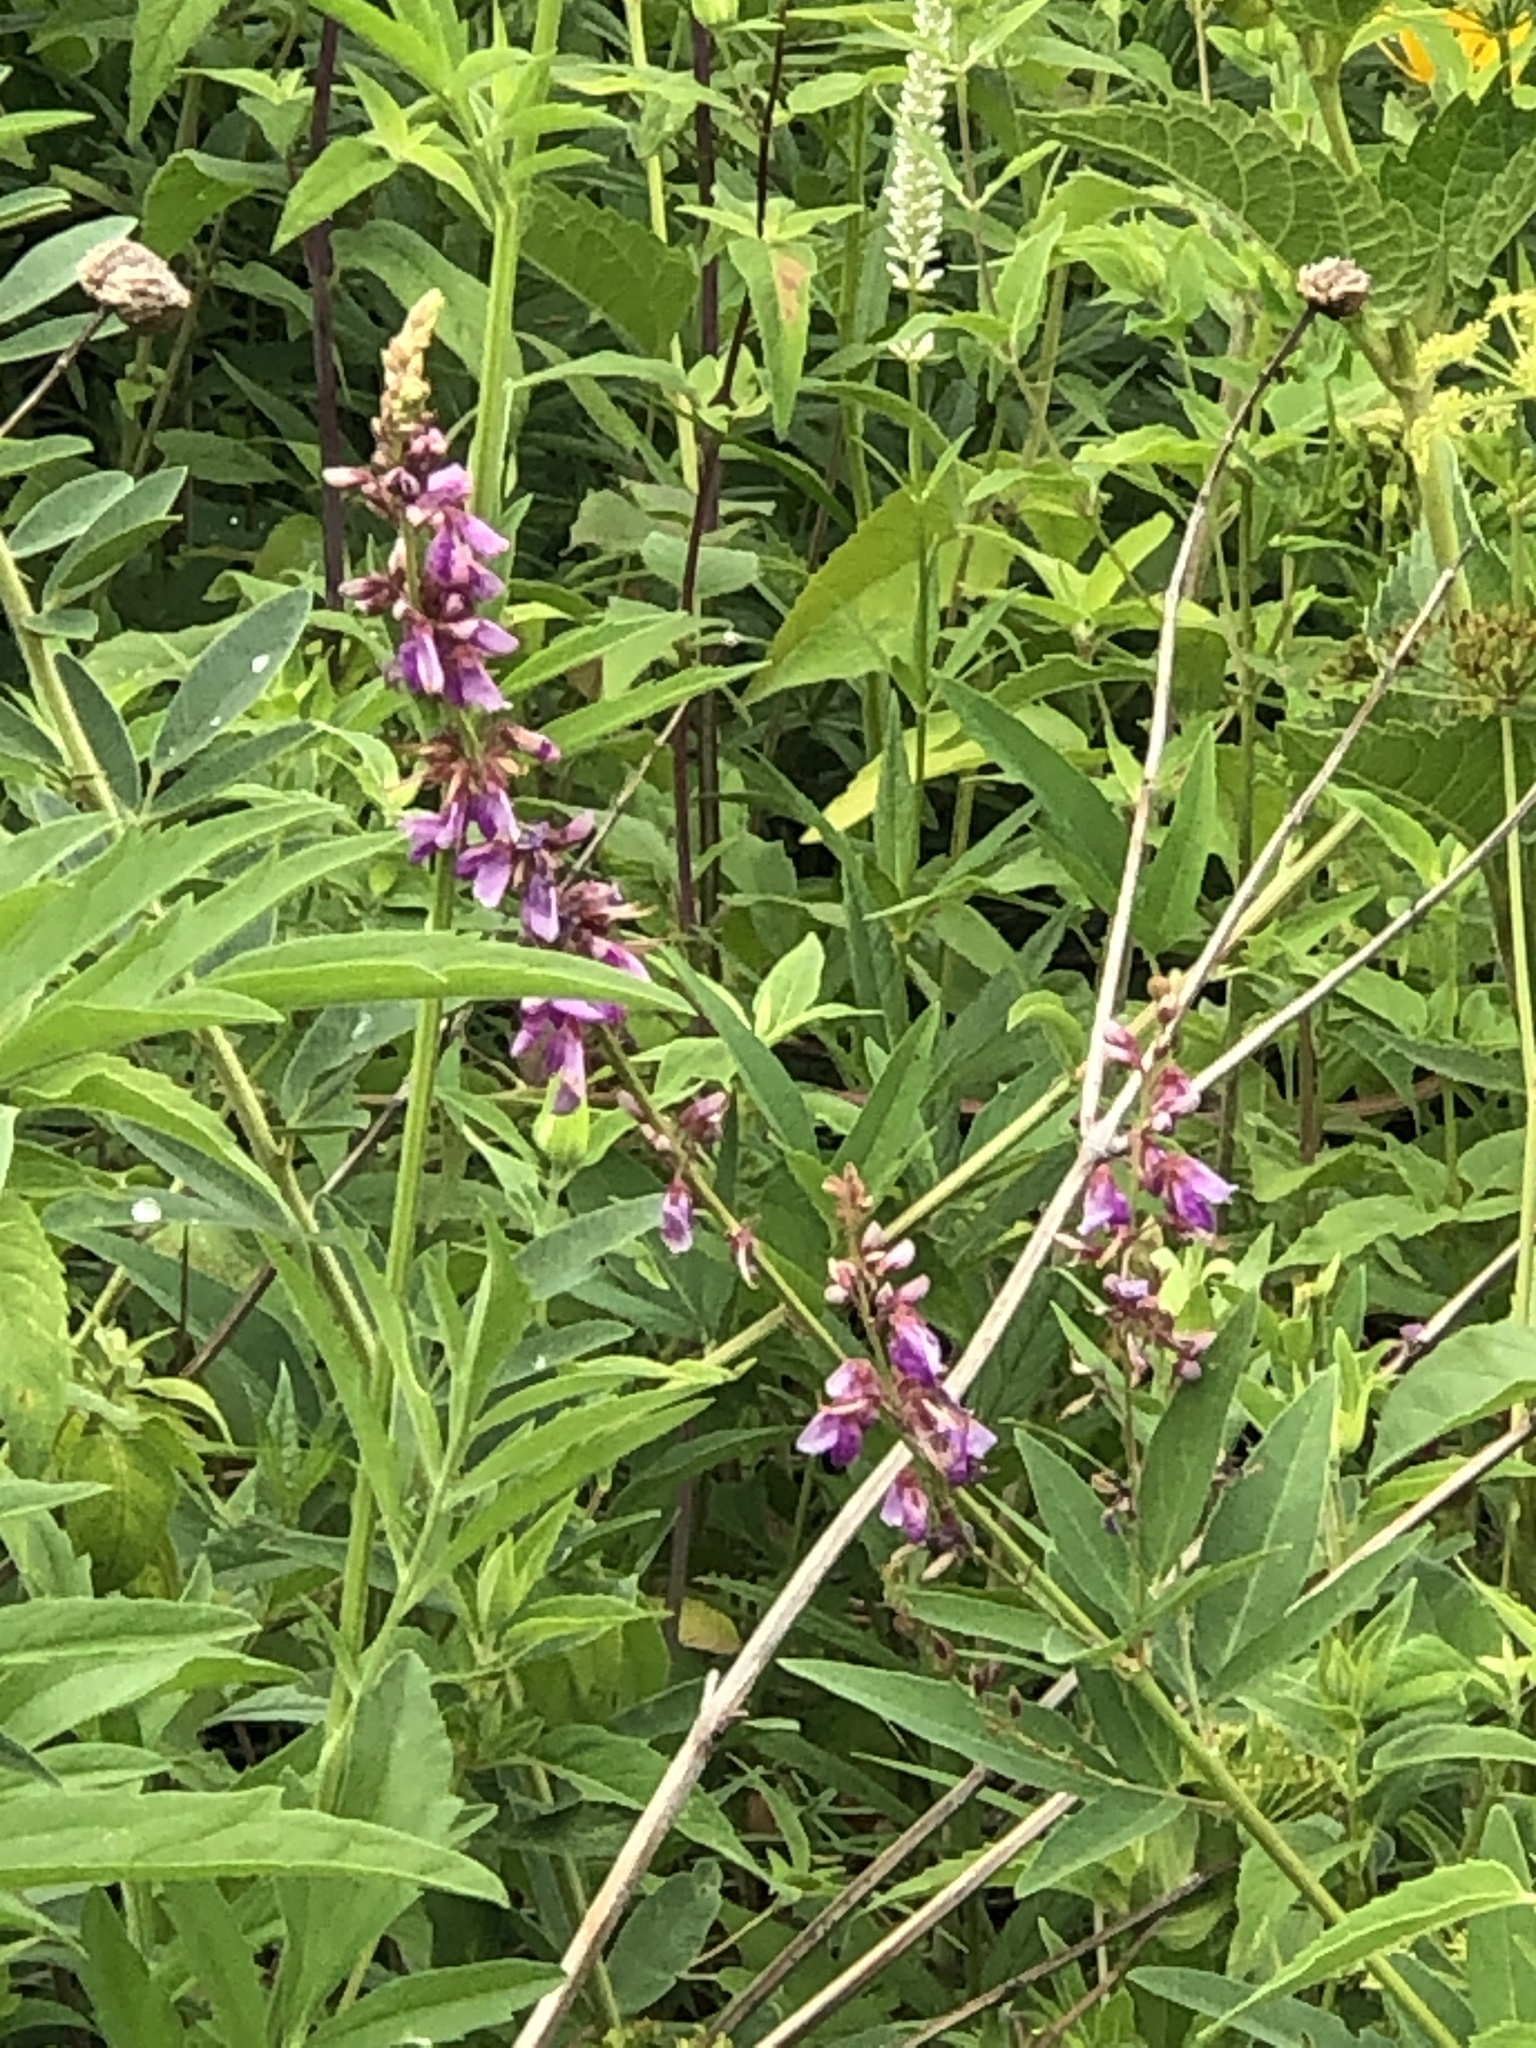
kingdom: Plantae
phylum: Tracheophyta
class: Magnoliopsida
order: Fabales
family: Fabaceae
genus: Desmodium
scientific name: Desmodium canadense
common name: Canada tick-trefoil
